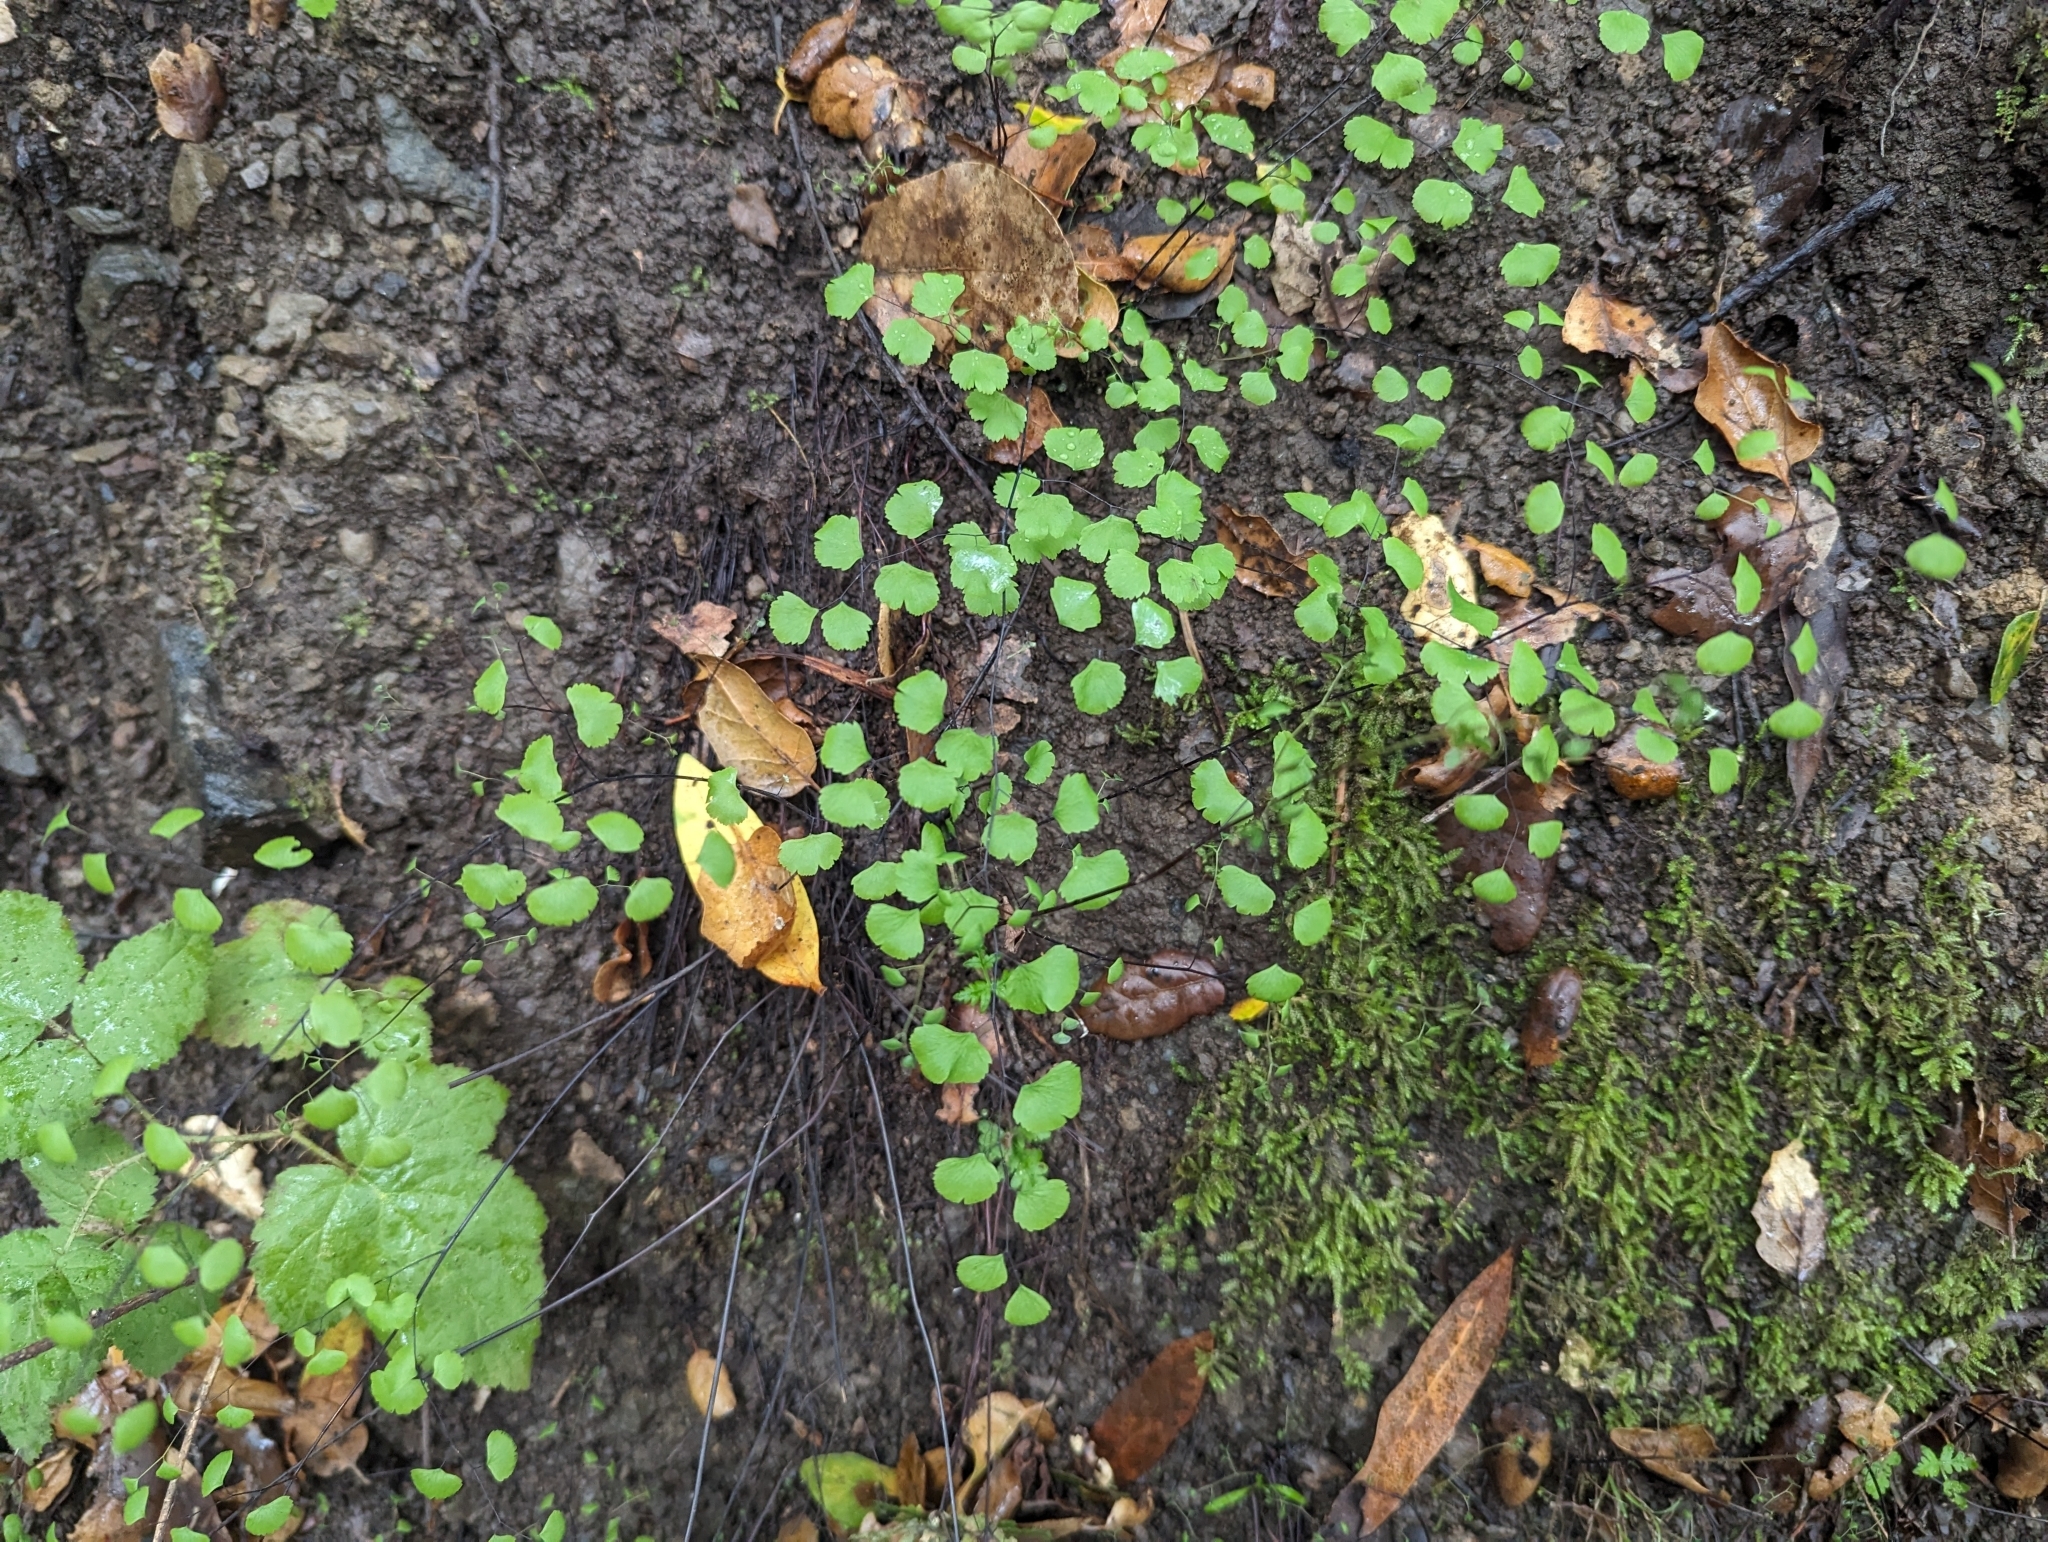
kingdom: Plantae
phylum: Tracheophyta
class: Polypodiopsida
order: Polypodiales
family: Pteridaceae
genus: Adiantum
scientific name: Adiantum jordanii
